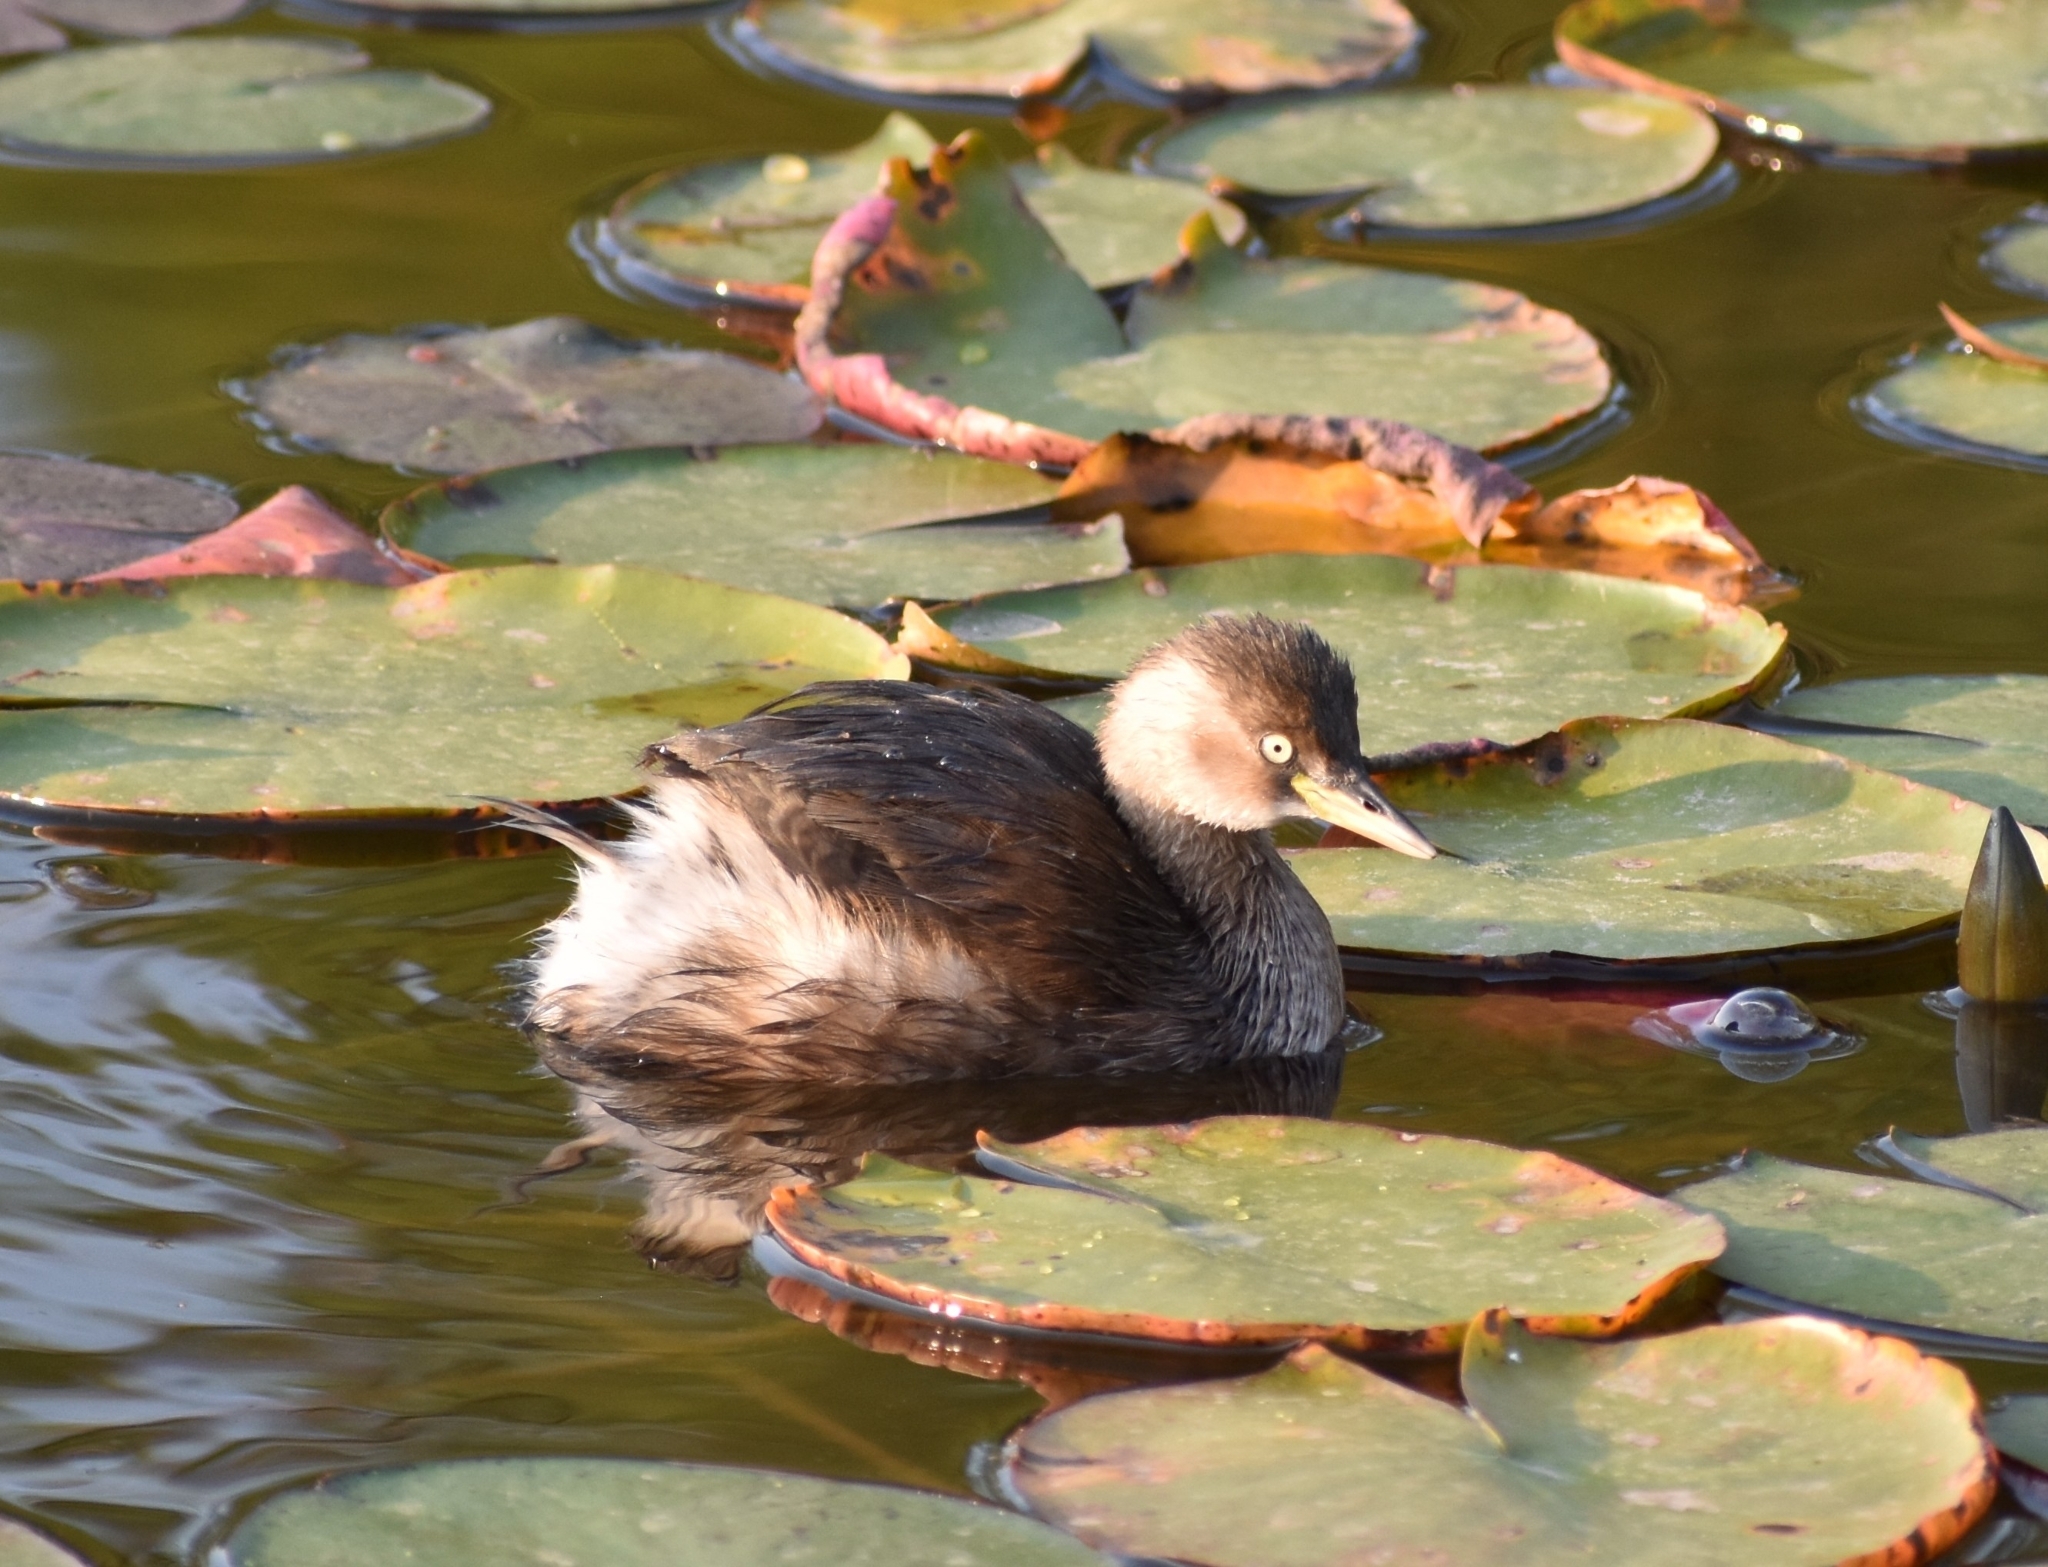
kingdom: Animalia
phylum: Chordata
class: Aves
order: Podicipediformes
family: Podicipedidae
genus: Tachybaptus
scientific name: Tachybaptus ruficollis
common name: Little grebe
